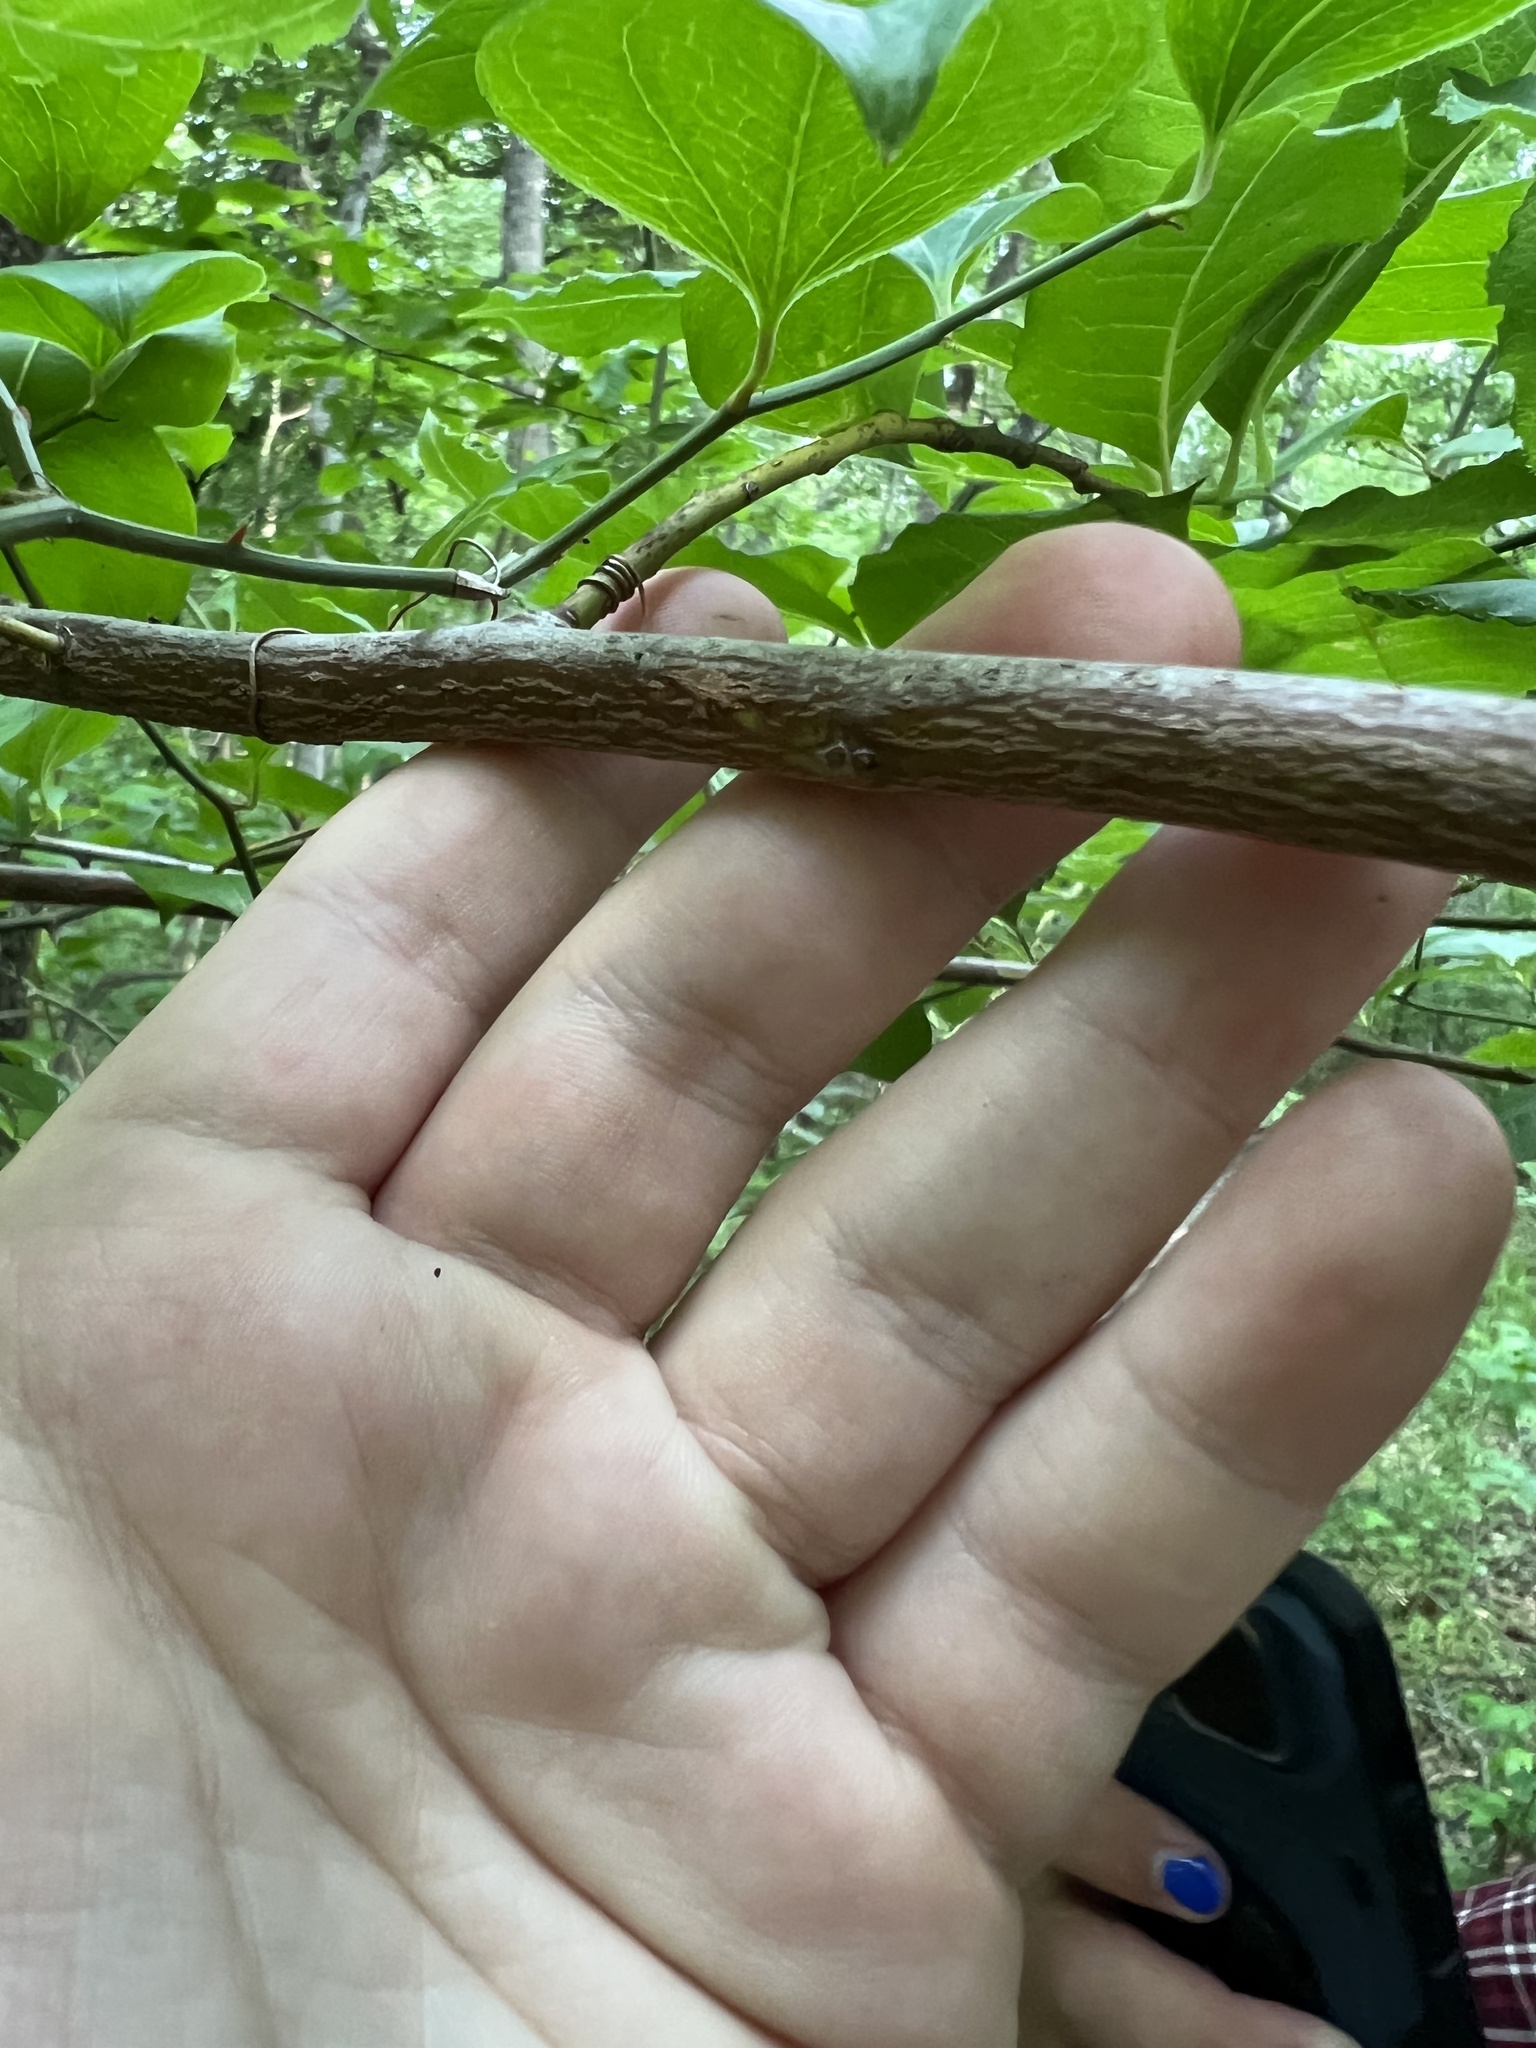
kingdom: Plantae
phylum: Tracheophyta
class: Magnoliopsida
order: Ericales
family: Ericaceae
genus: Oxydendrum
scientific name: Oxydendrum arboreum
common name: Sourwood
